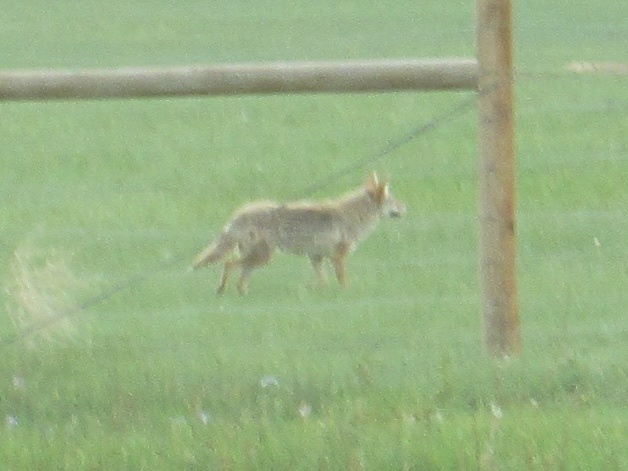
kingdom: Animalia
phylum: Chordata
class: Mammalia
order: Carnivora
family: Canidae
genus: Canis
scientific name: Canis latrans
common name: Coyote
